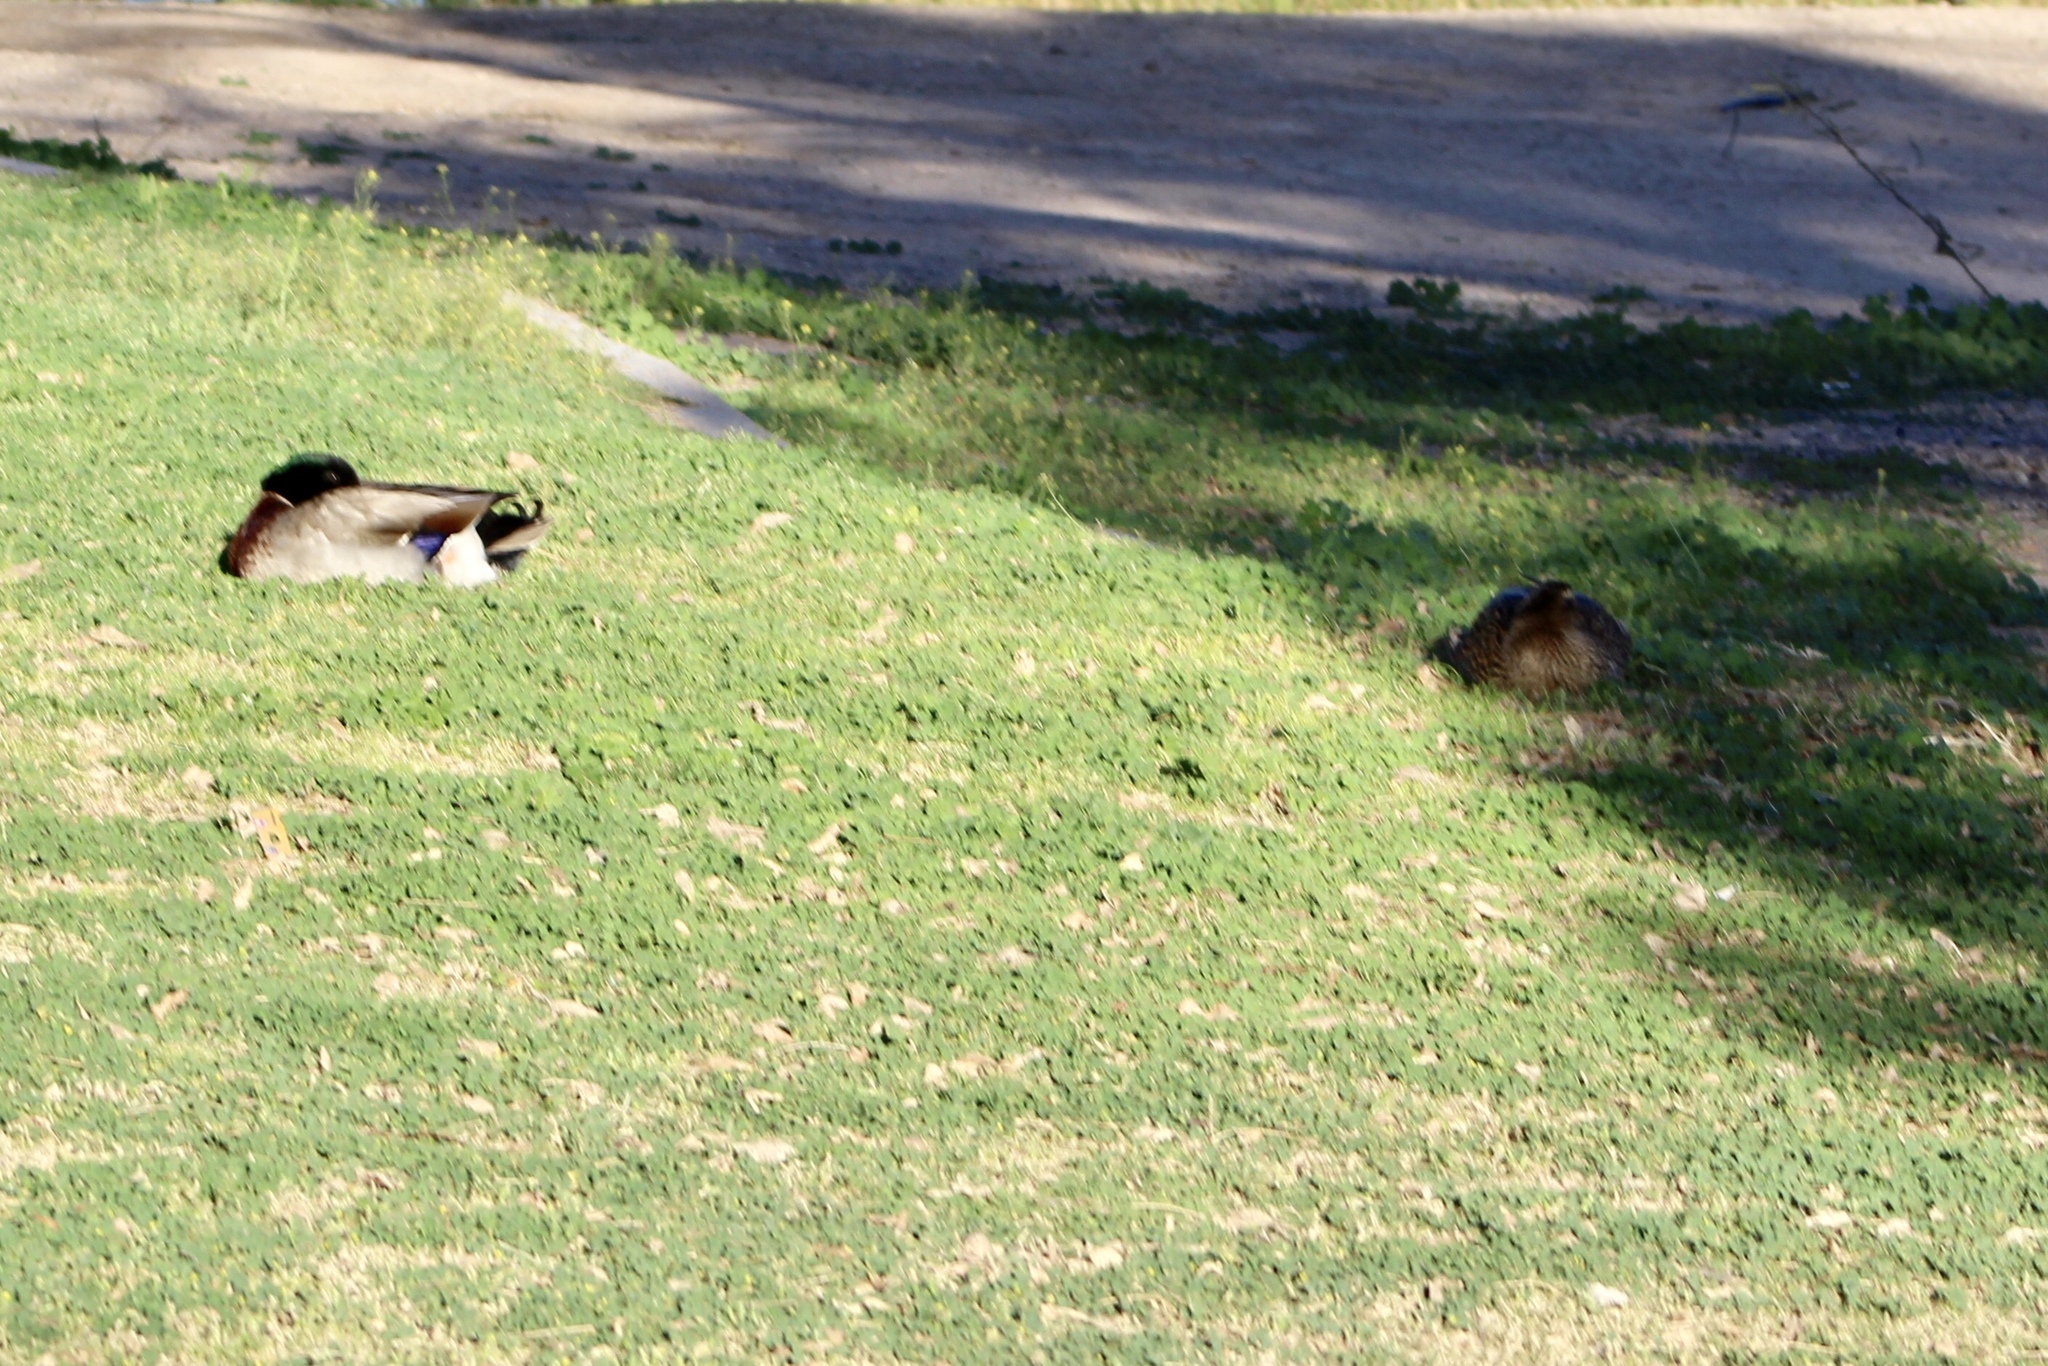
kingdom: Animalia
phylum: Chordata
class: Aves
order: Anseriformes
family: Anatidae
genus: Anas
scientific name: Anas platyrhynchos
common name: Mallard
